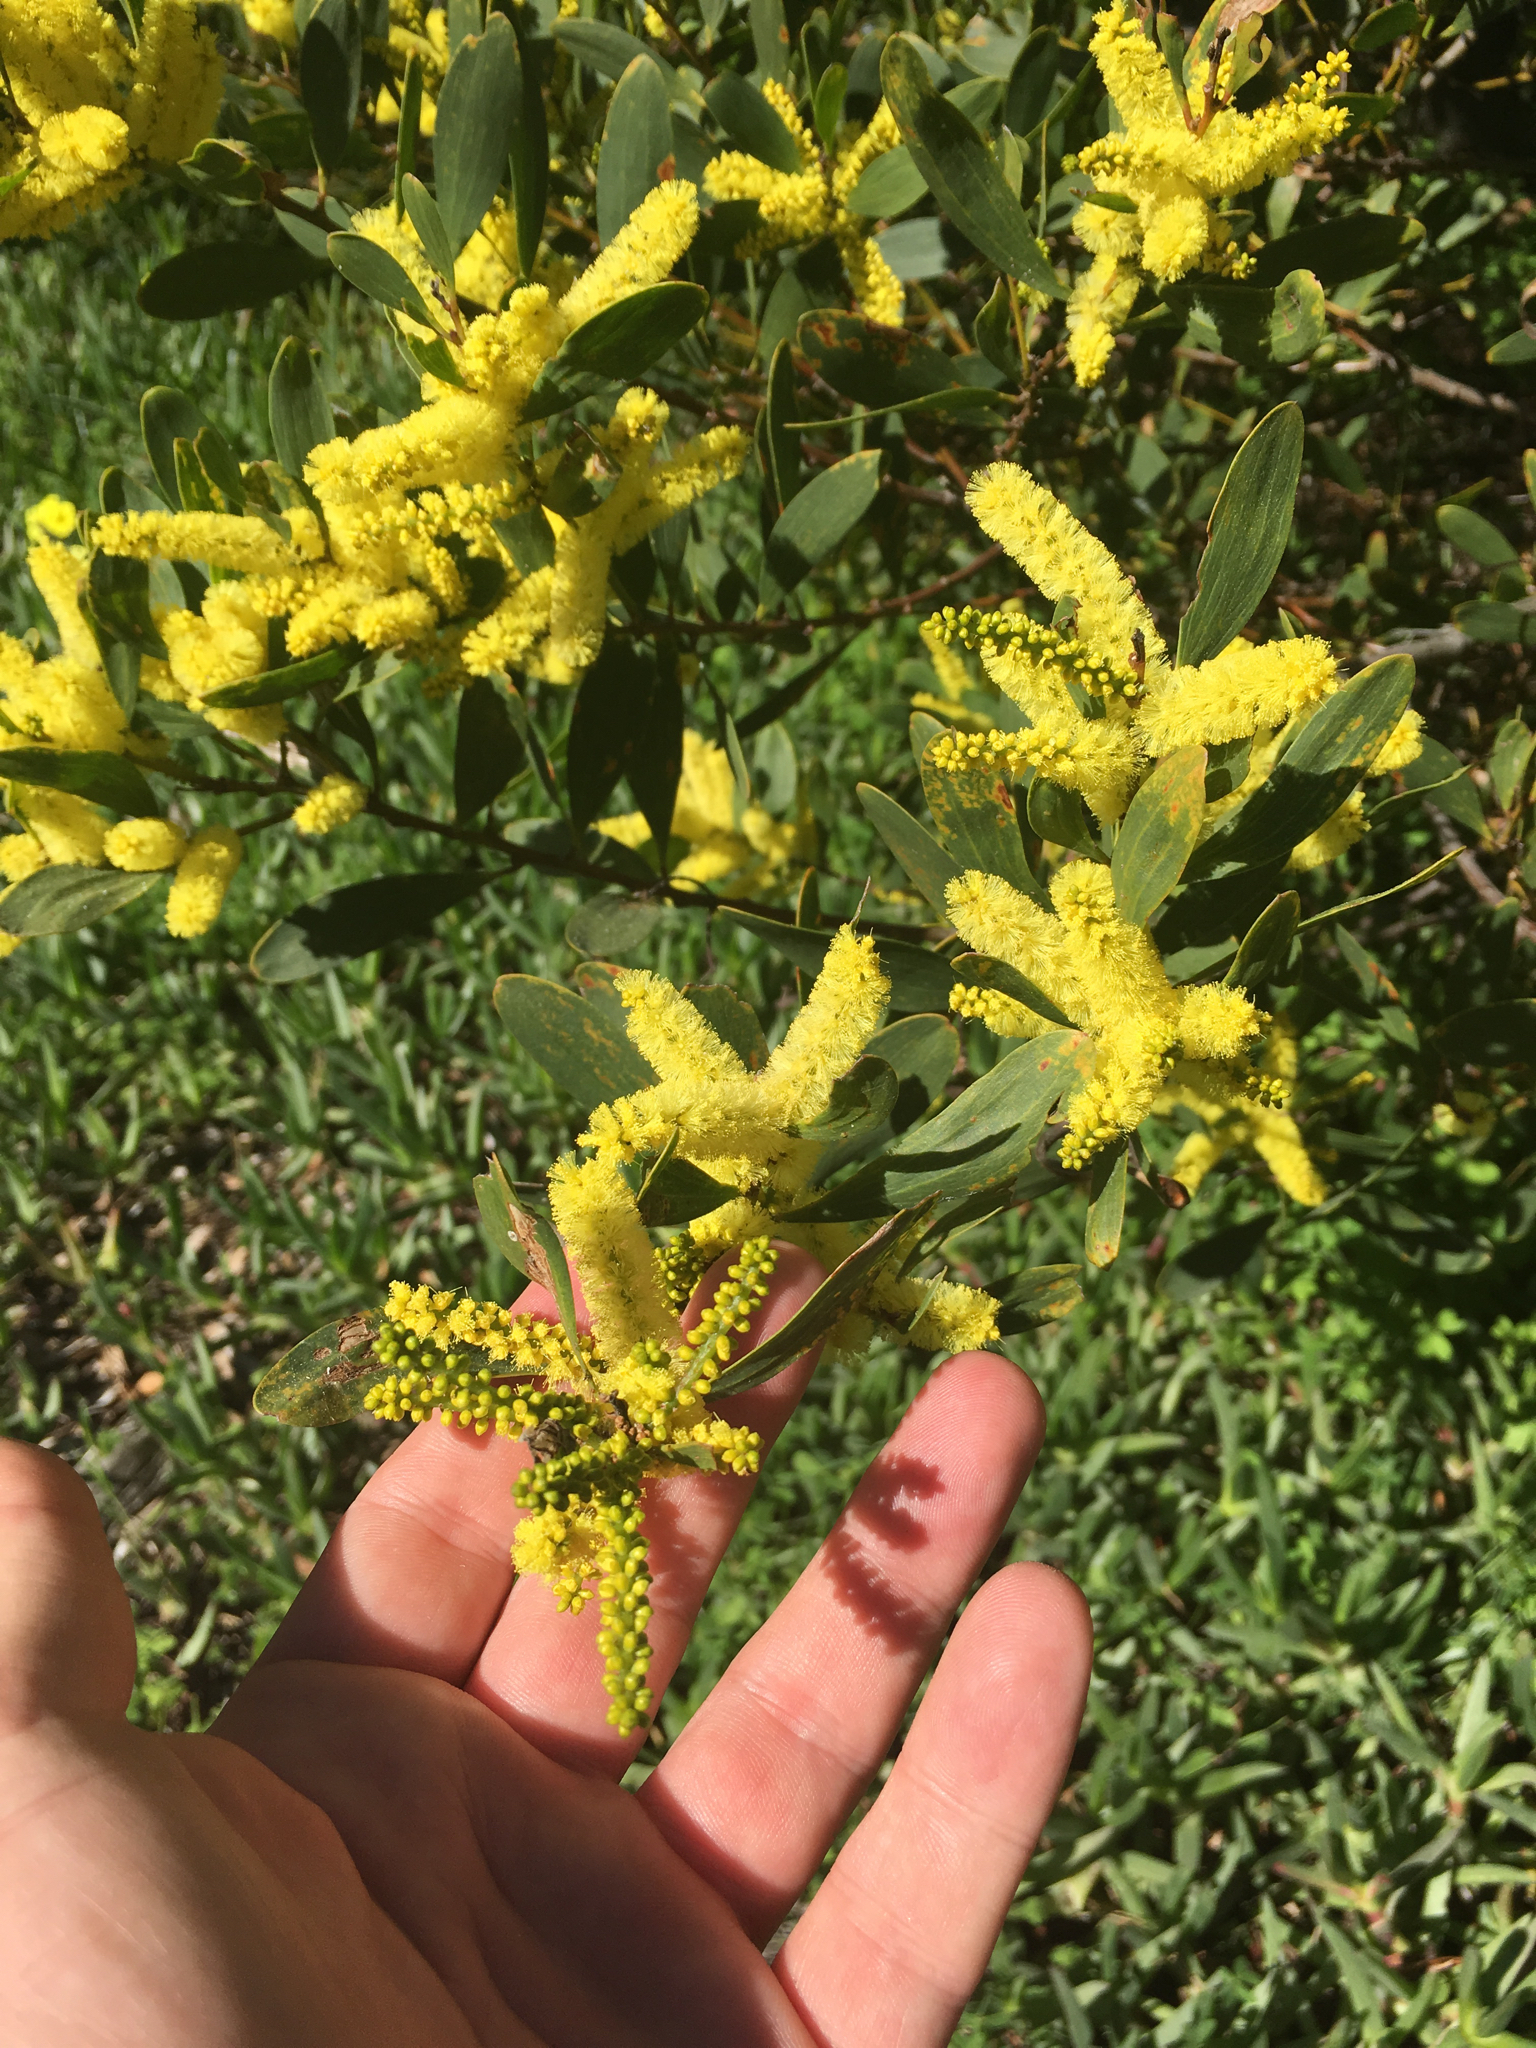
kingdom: Plantae
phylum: Tracheophyta
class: Magnoliopsida
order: Fabales
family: Fabaceae
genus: Acacia
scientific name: Acacia longifolia
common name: Sydney golden wattle
